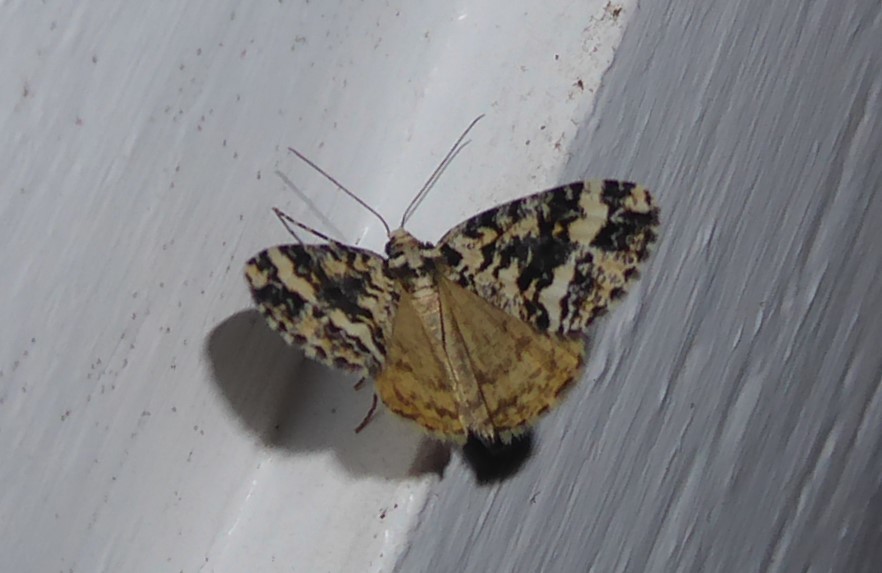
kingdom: Animalia
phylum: Arthropoda
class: Insecta
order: Lepidoptera
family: Geometridae
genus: Pseudocoremia
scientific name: Pseudocoremia leucelaea
